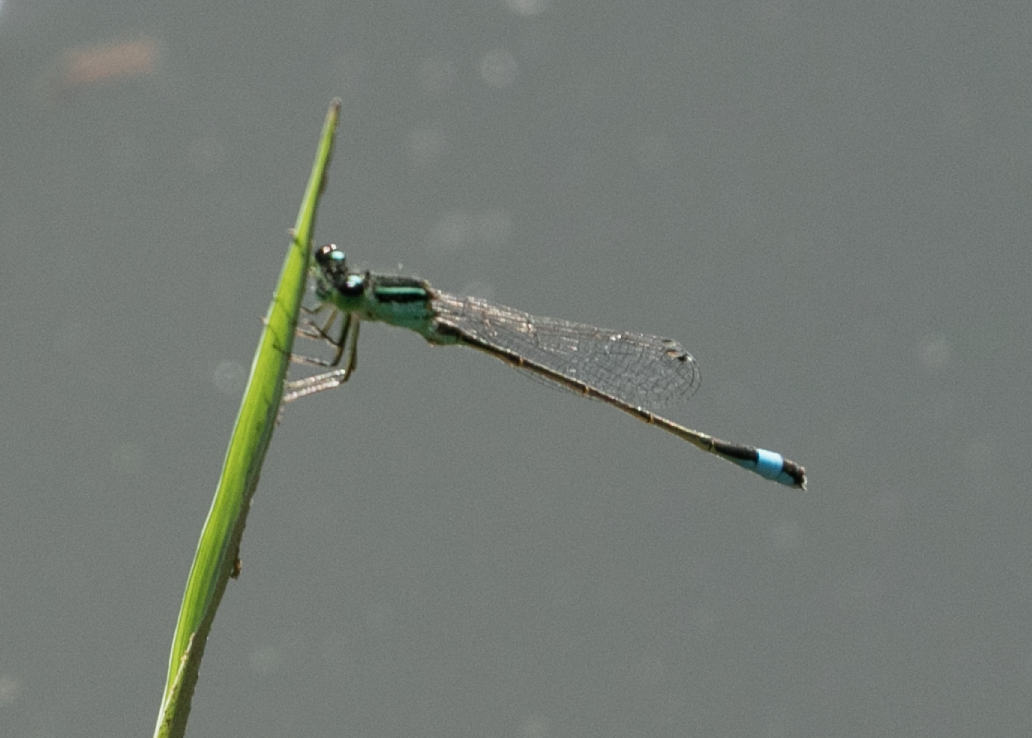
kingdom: Animalia
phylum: Arthropoda
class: Insecta
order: Odonata
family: Coenagrionidae
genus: Ischnura
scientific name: Ischnura elegans
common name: Blue-tailed damselfly
